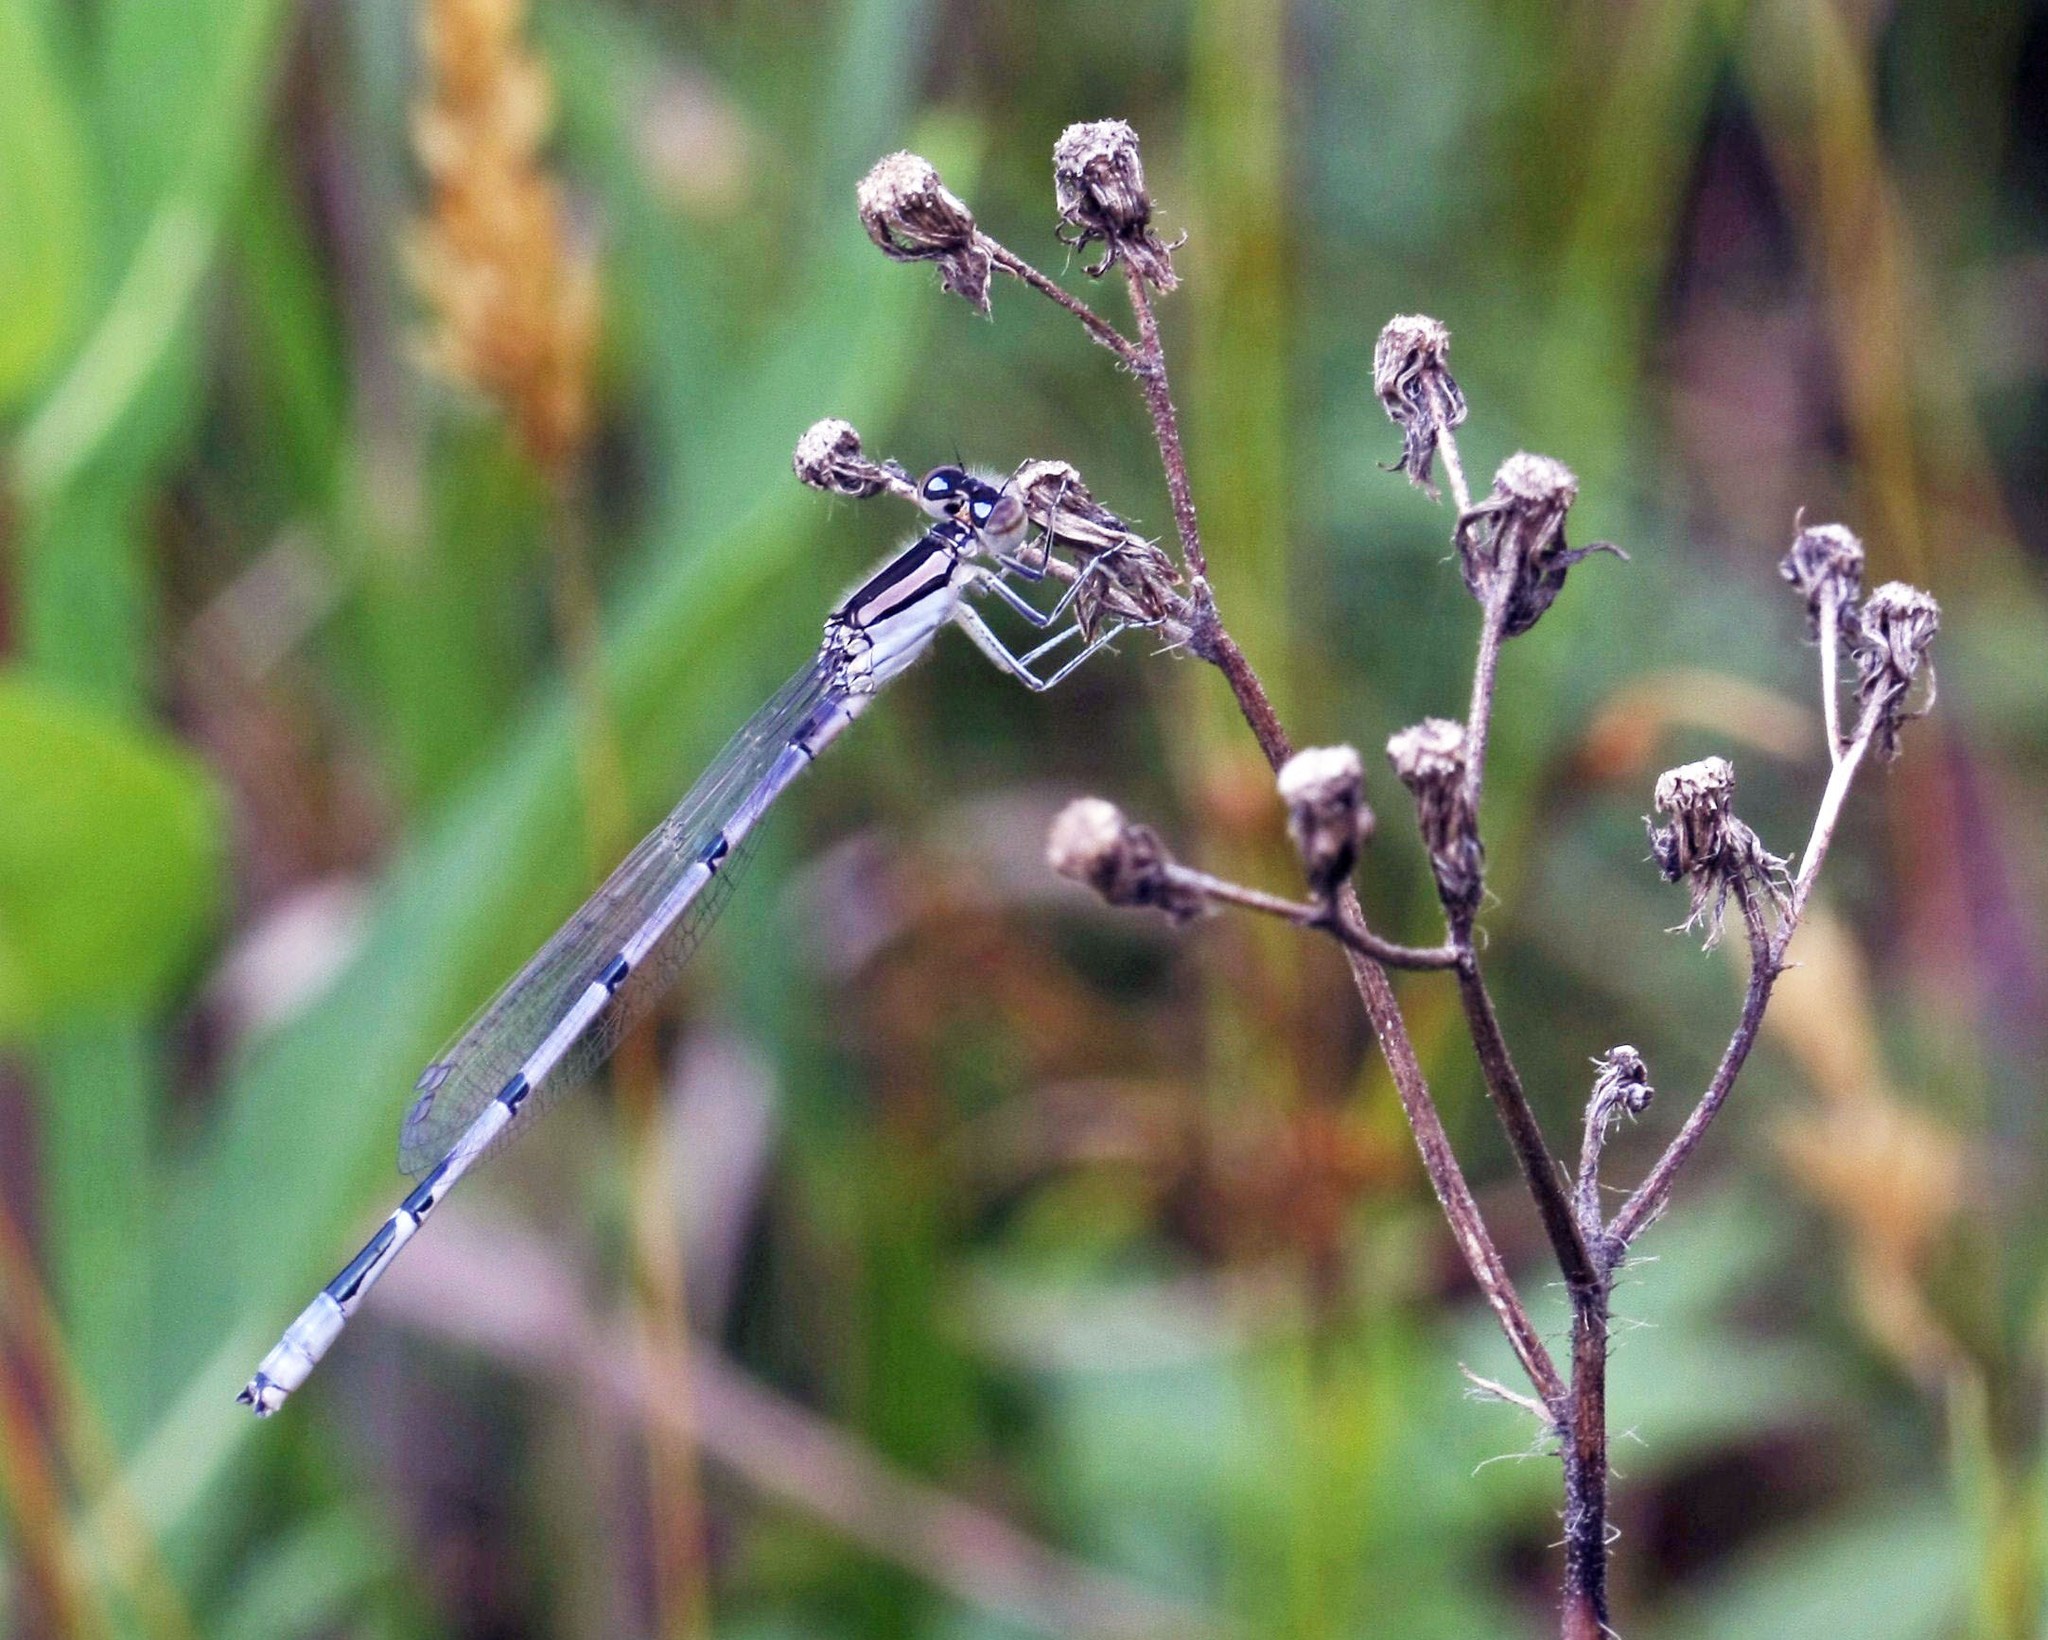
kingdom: Animalia
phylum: Arthropoda
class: Insecta
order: Odonata
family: Coenagrionidae
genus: Enallagma
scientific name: Enallagma civile
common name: Damselfly
